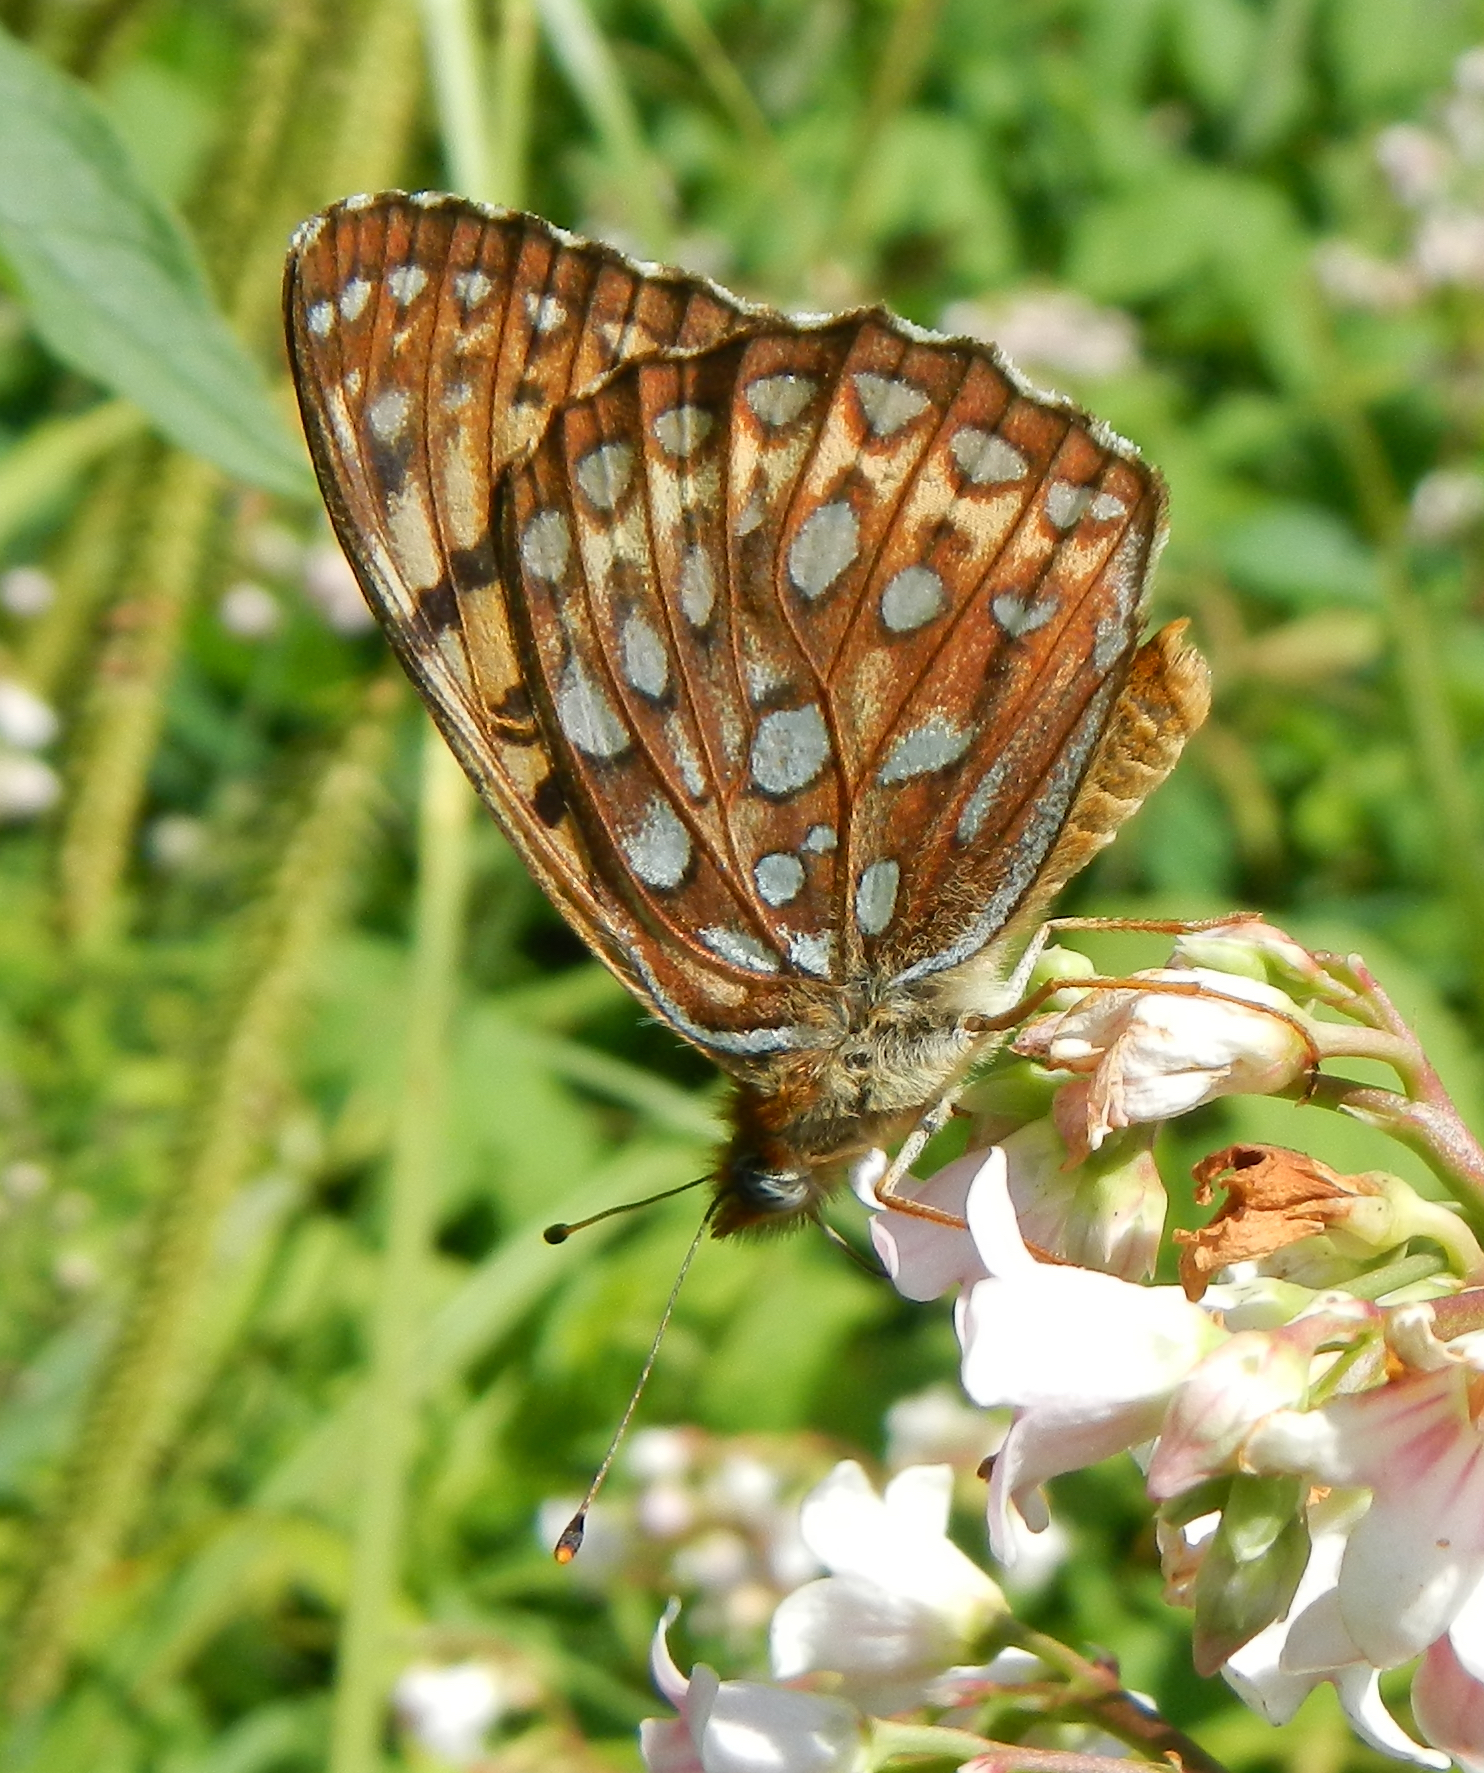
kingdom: Animalia
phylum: Arthropoda
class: Insecta
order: Lepidoptera
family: Nymphalidae
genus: Speyeria
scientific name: Speyeria atlantis
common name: Atlantis fritillary
